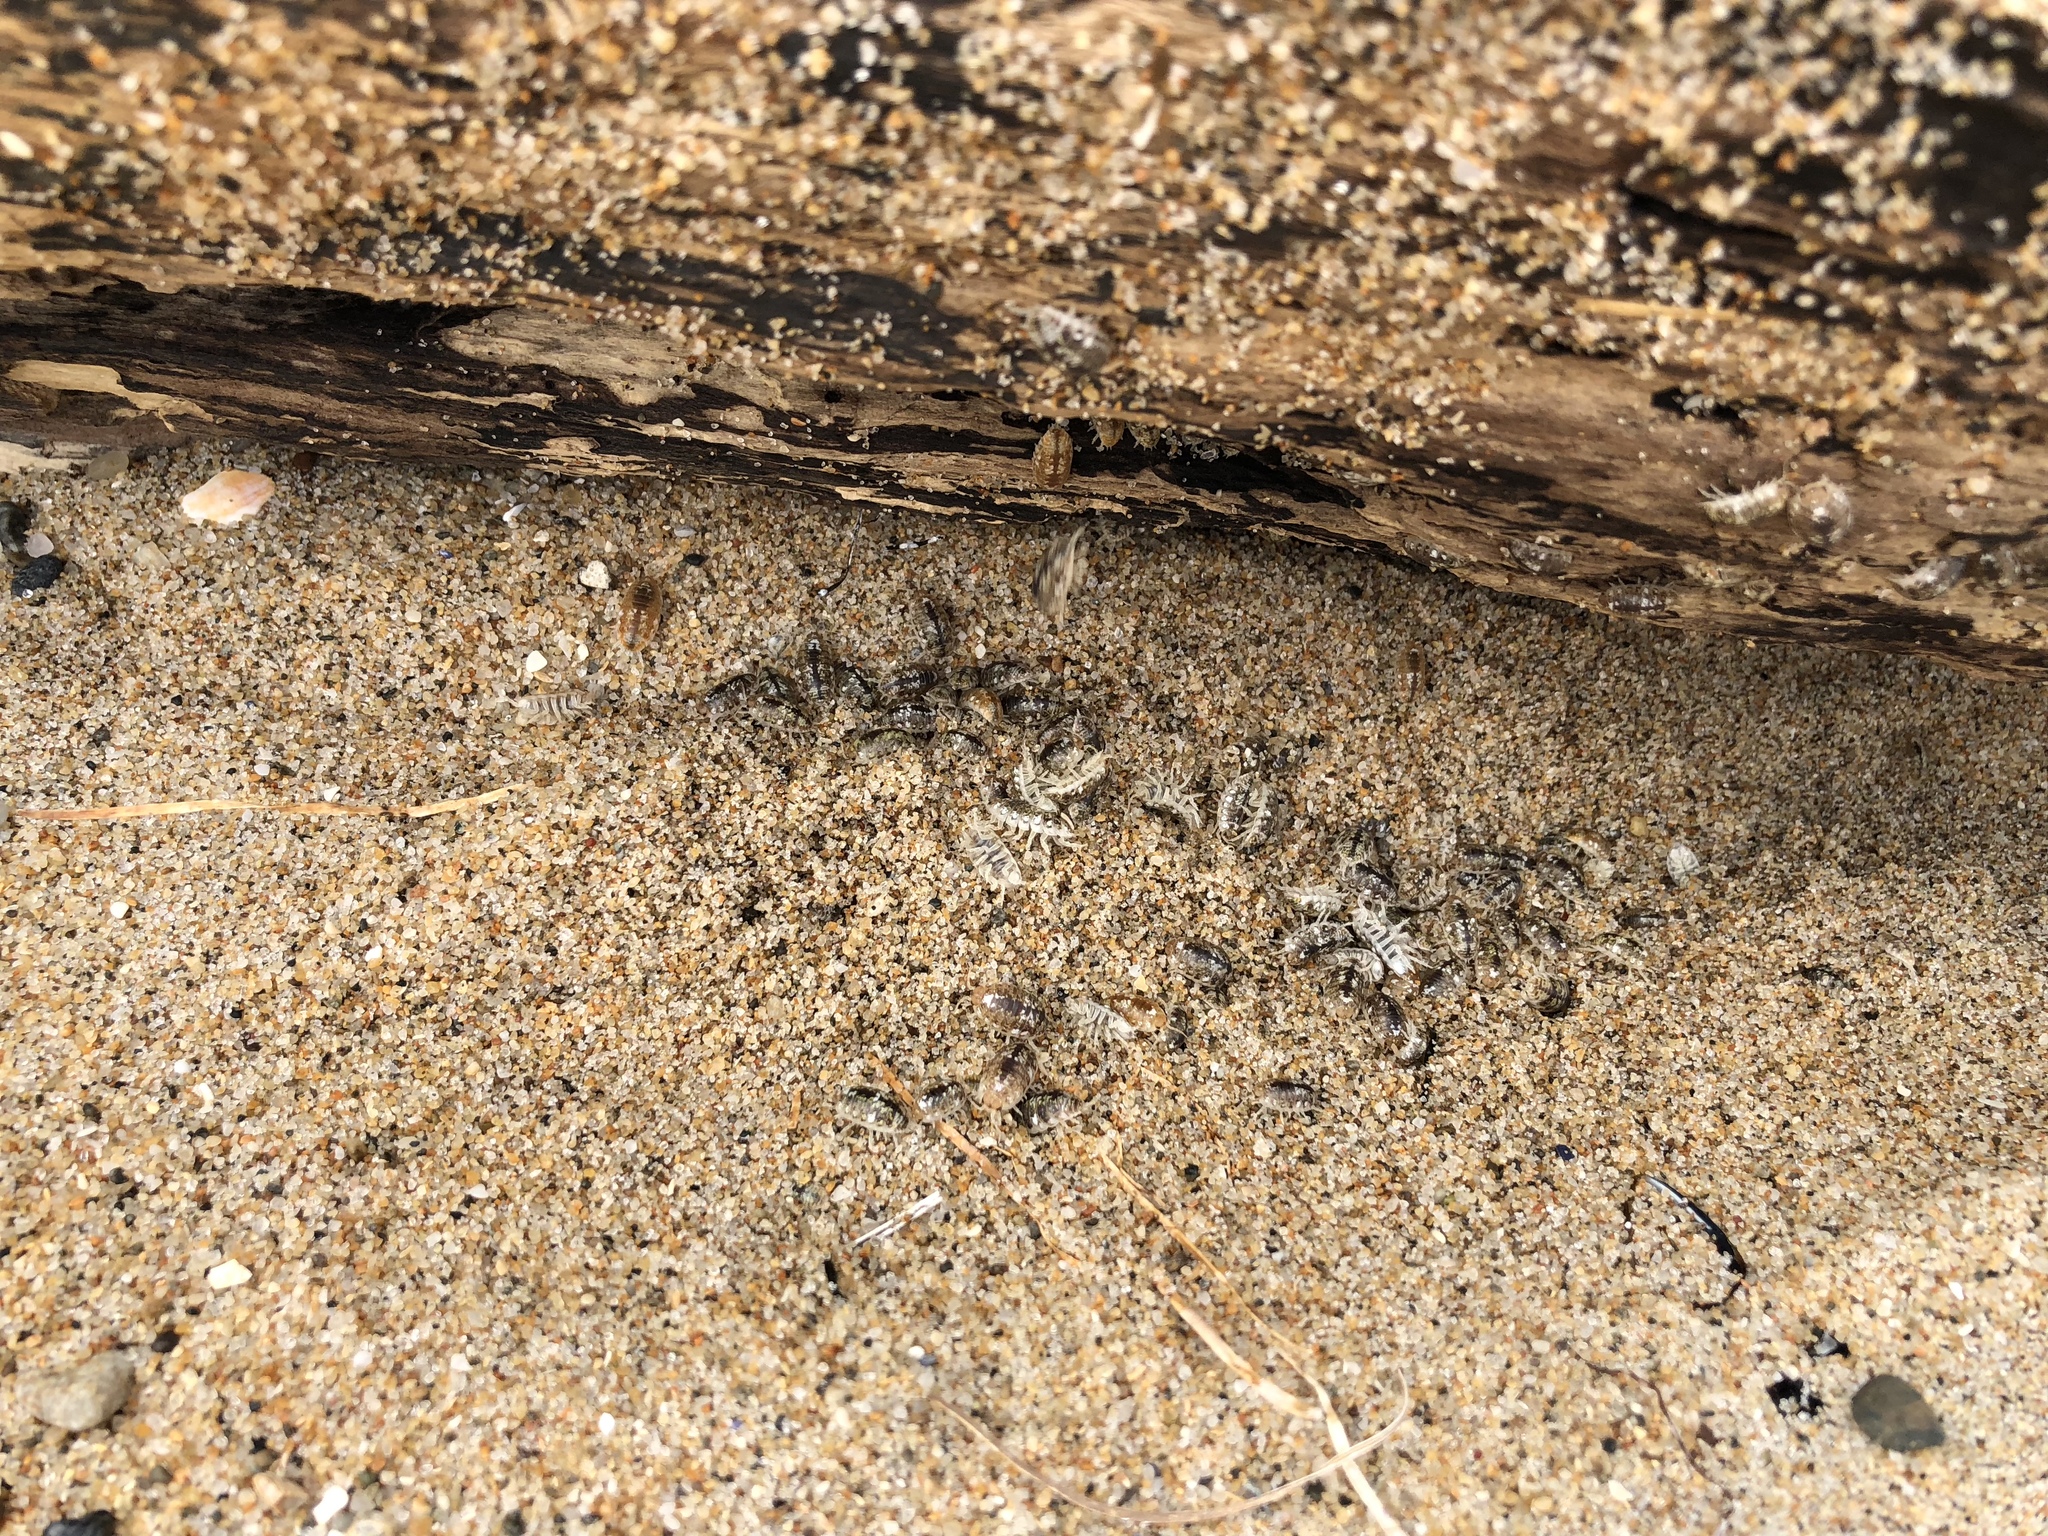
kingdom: Animalia
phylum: Arthropoda
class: Malacostraca
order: Isopoda
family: Alloniscidae
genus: Alloniscus
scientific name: Alloniscus perconvexus
